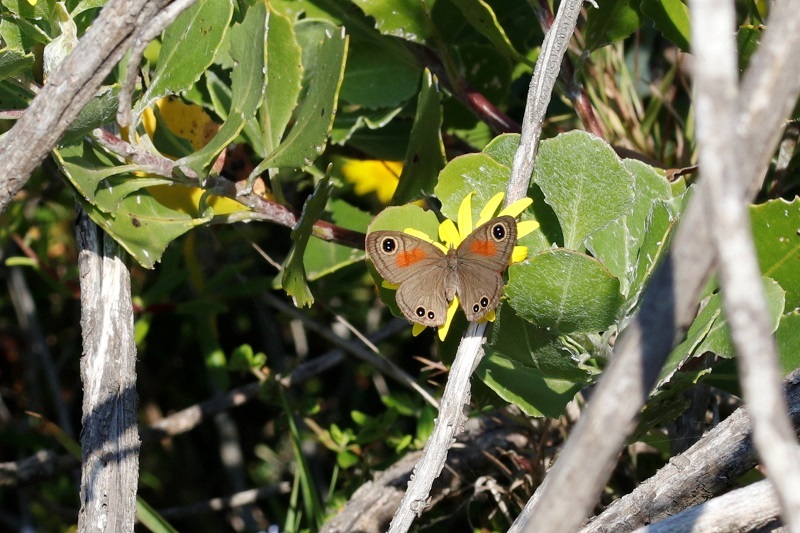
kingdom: Animalia
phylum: Arthropoda
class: Insecta
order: Lepidoptera
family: Nymphalidae
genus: Cassionympha
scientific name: Cassionympha cassius
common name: Rainforest brown
